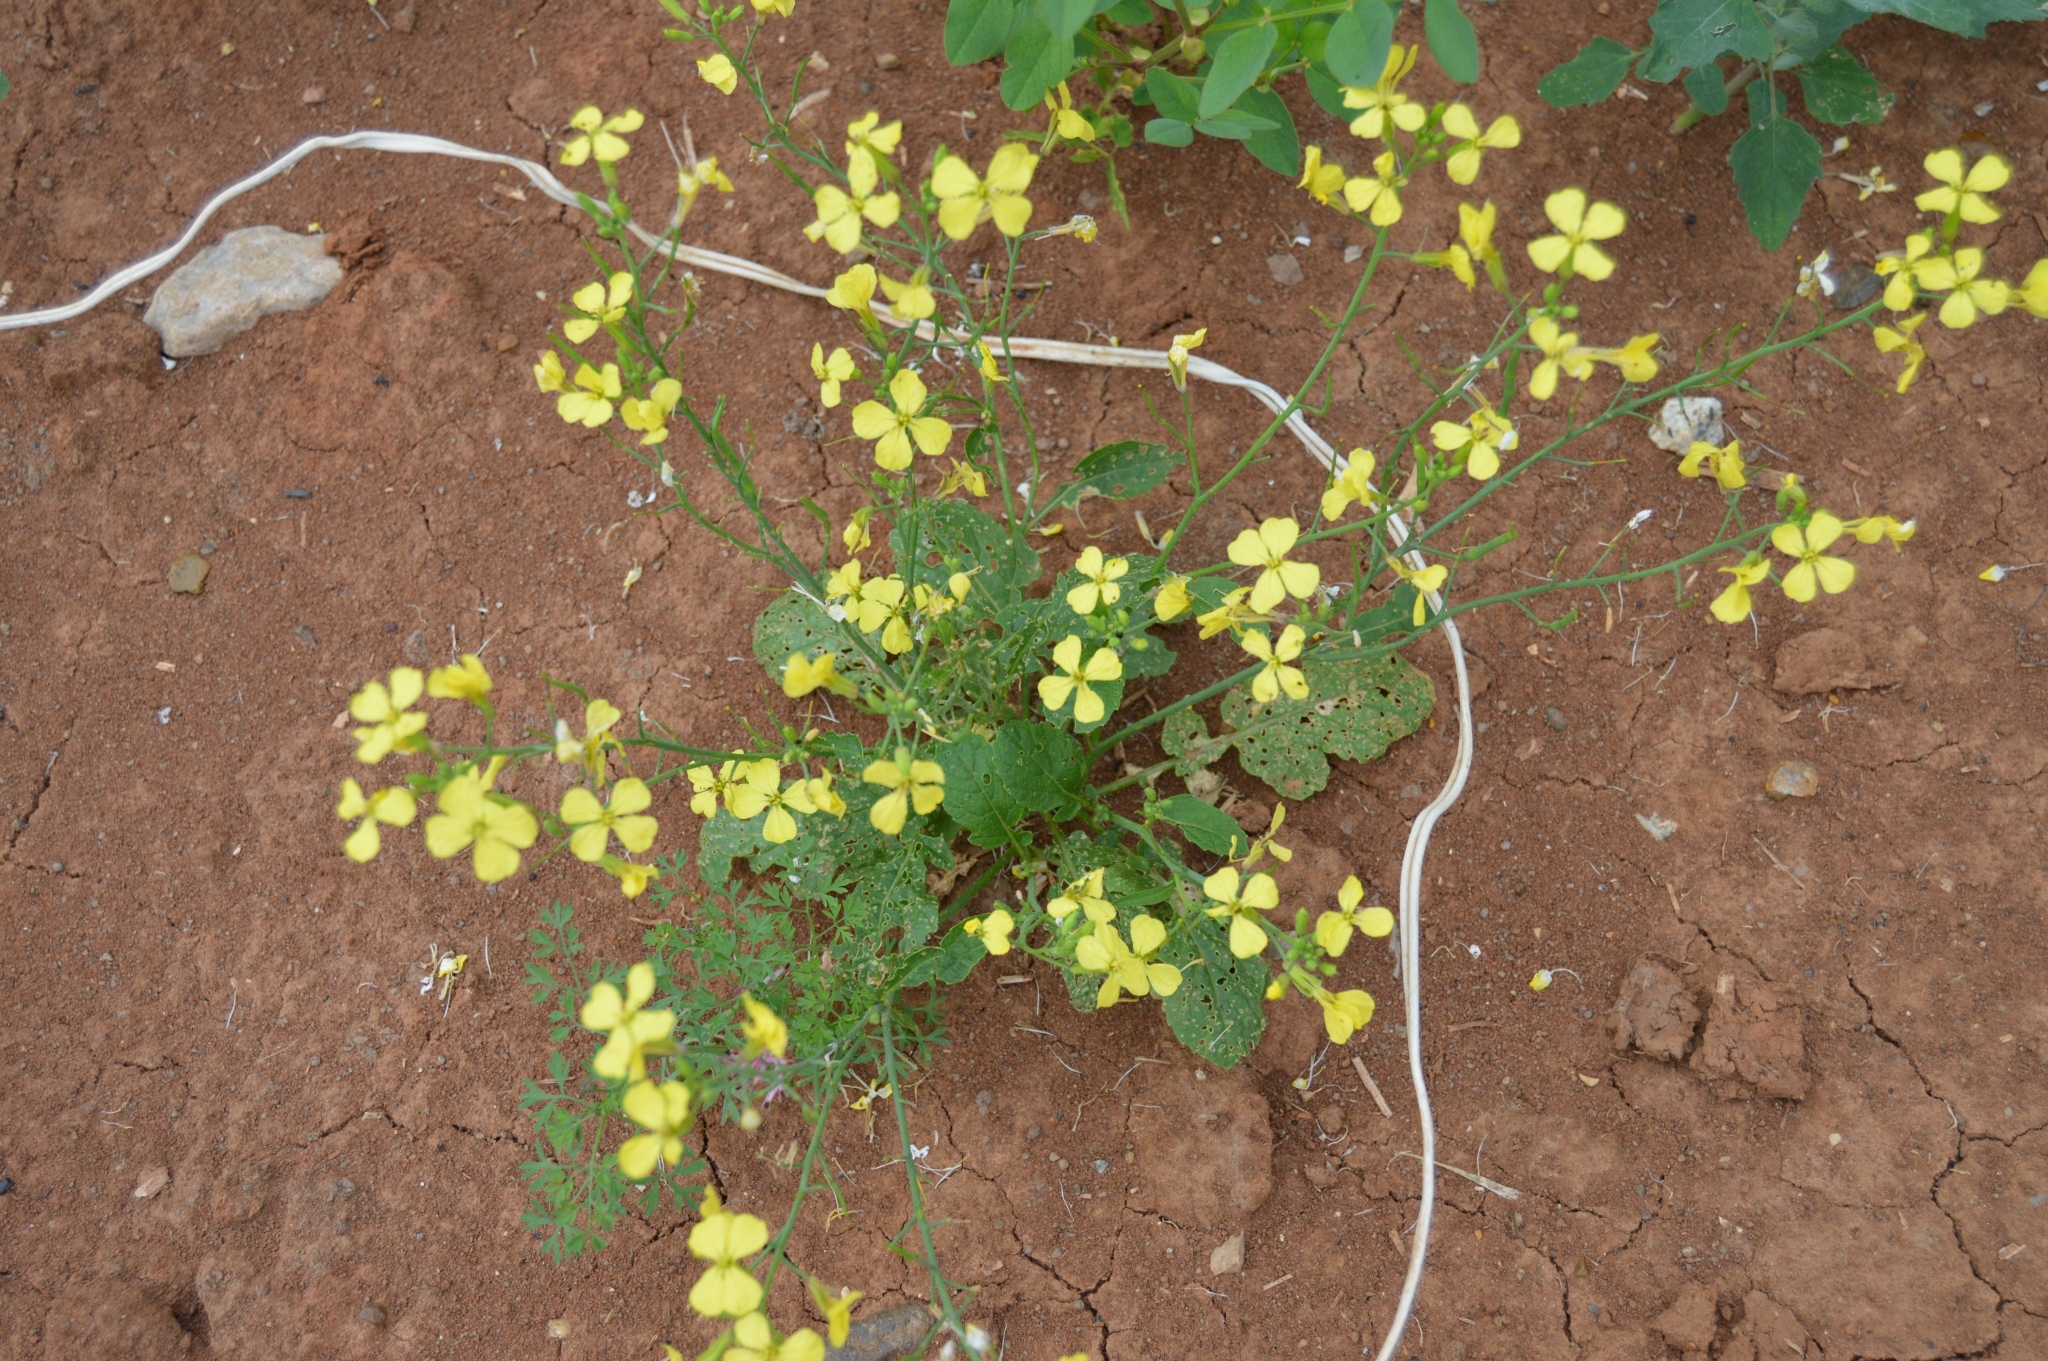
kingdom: Plantae
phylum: Tracheophyta
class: Magnoliopsida
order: Brassicales
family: Brassicaceae
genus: Raphanus
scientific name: Raphanus raphanistrum
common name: Wild radish
